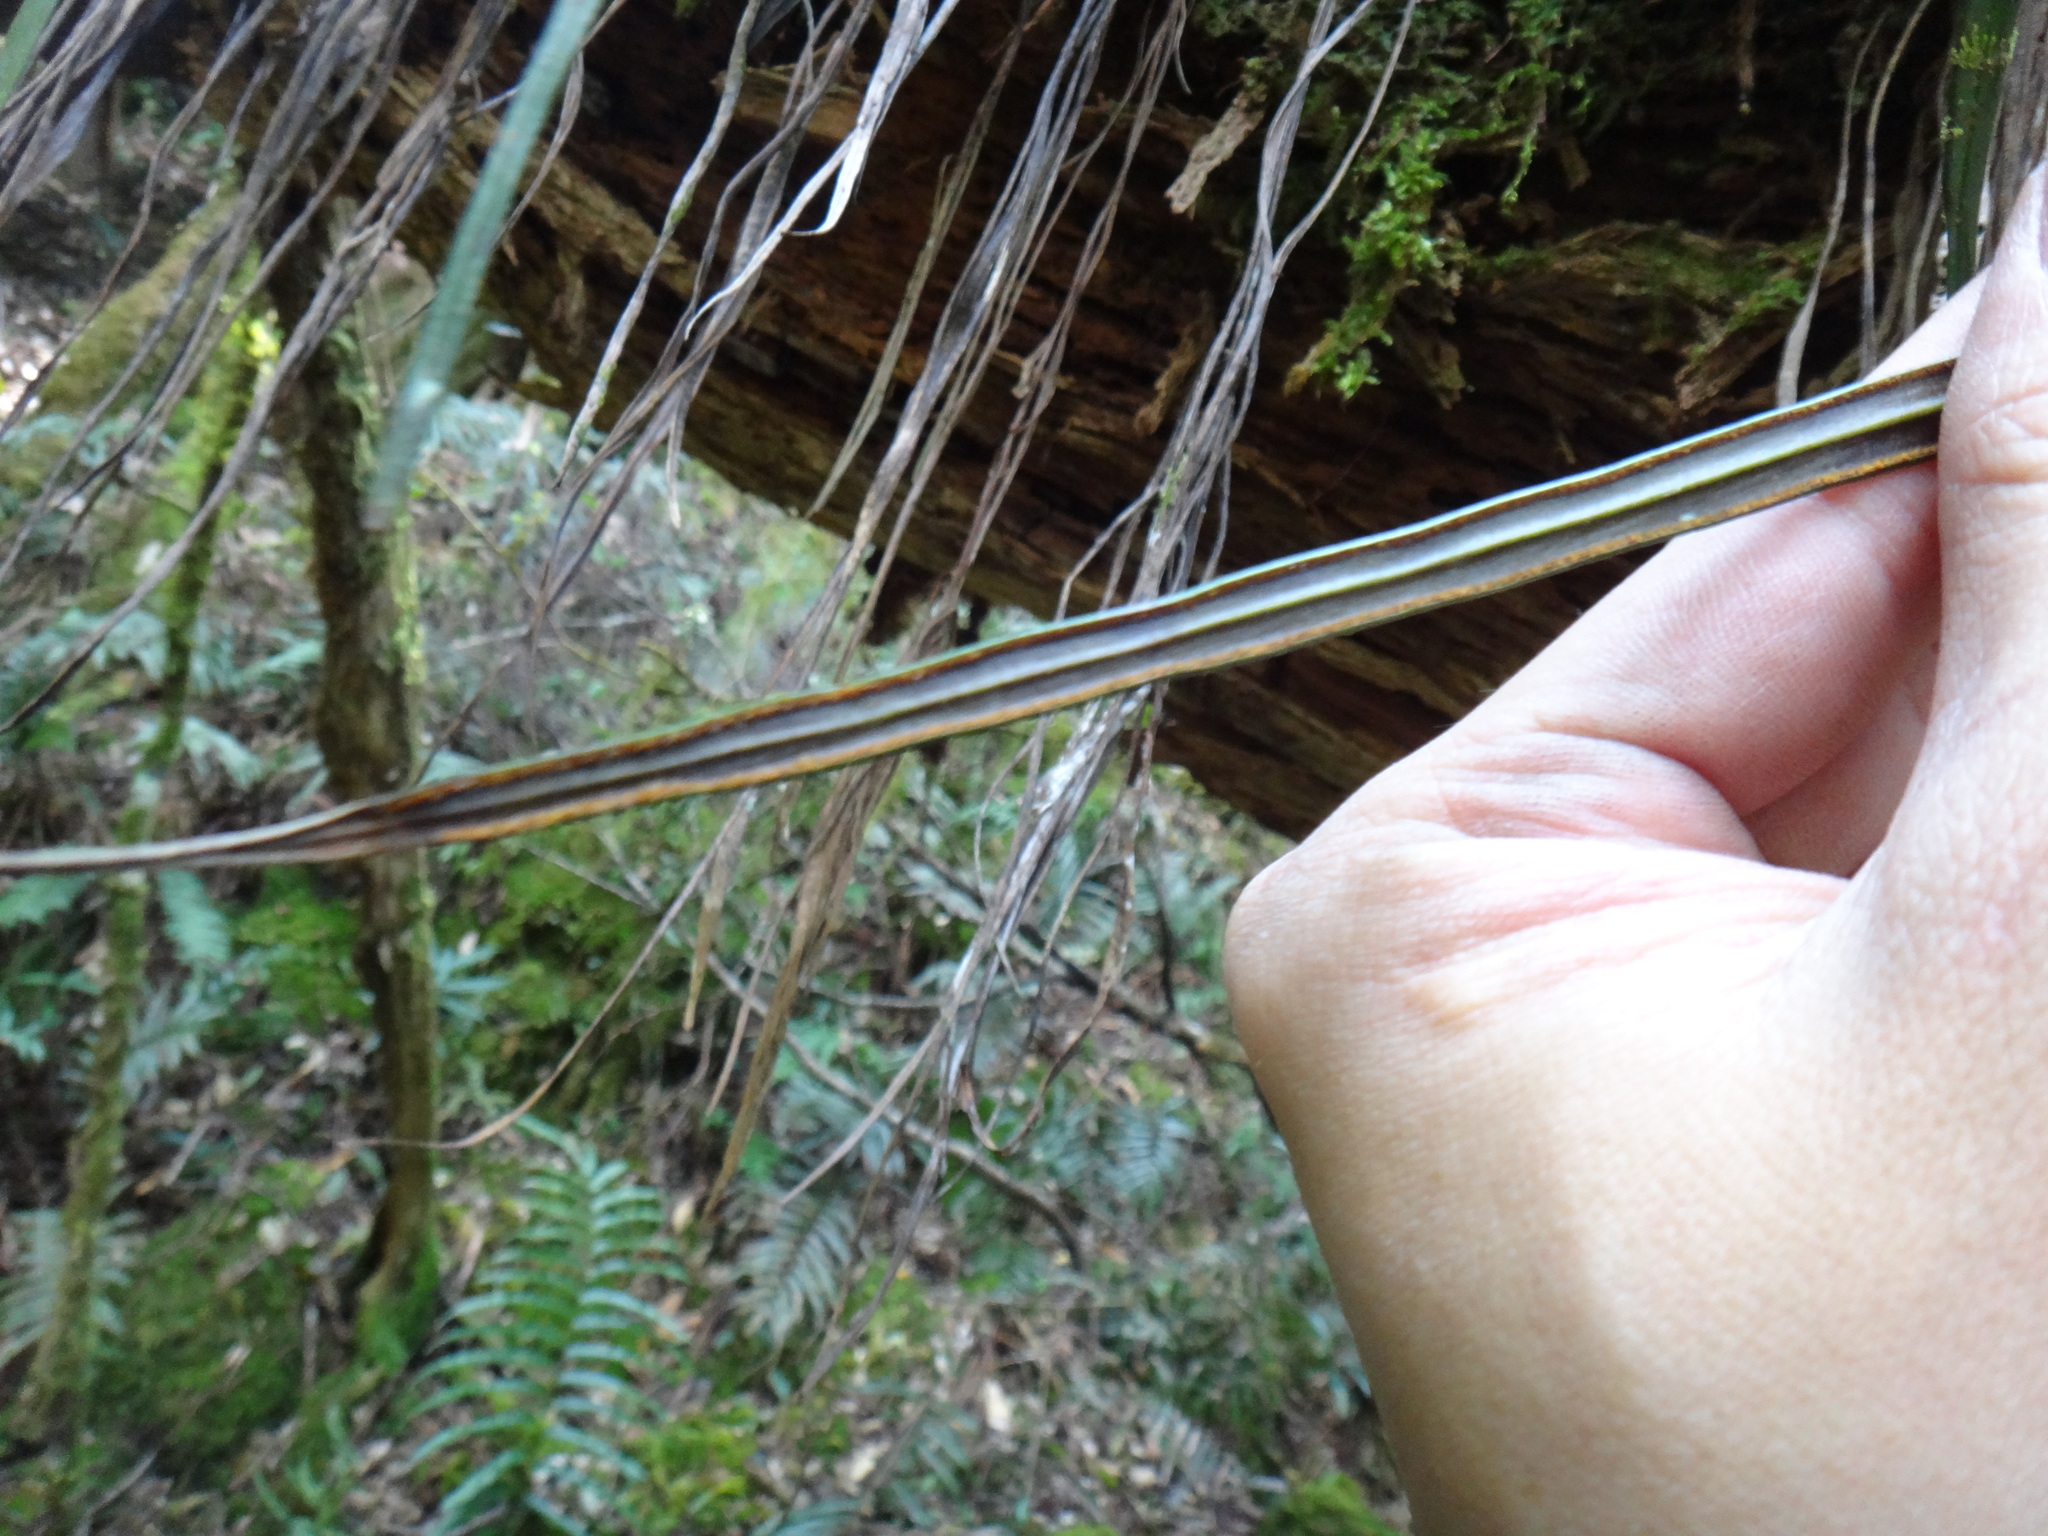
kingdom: Plantae
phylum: Tracheophyta
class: Polypodiopsida
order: Polypodiales
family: Pteridaceae
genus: Haplopteris
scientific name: Haplopteris flexuosa
